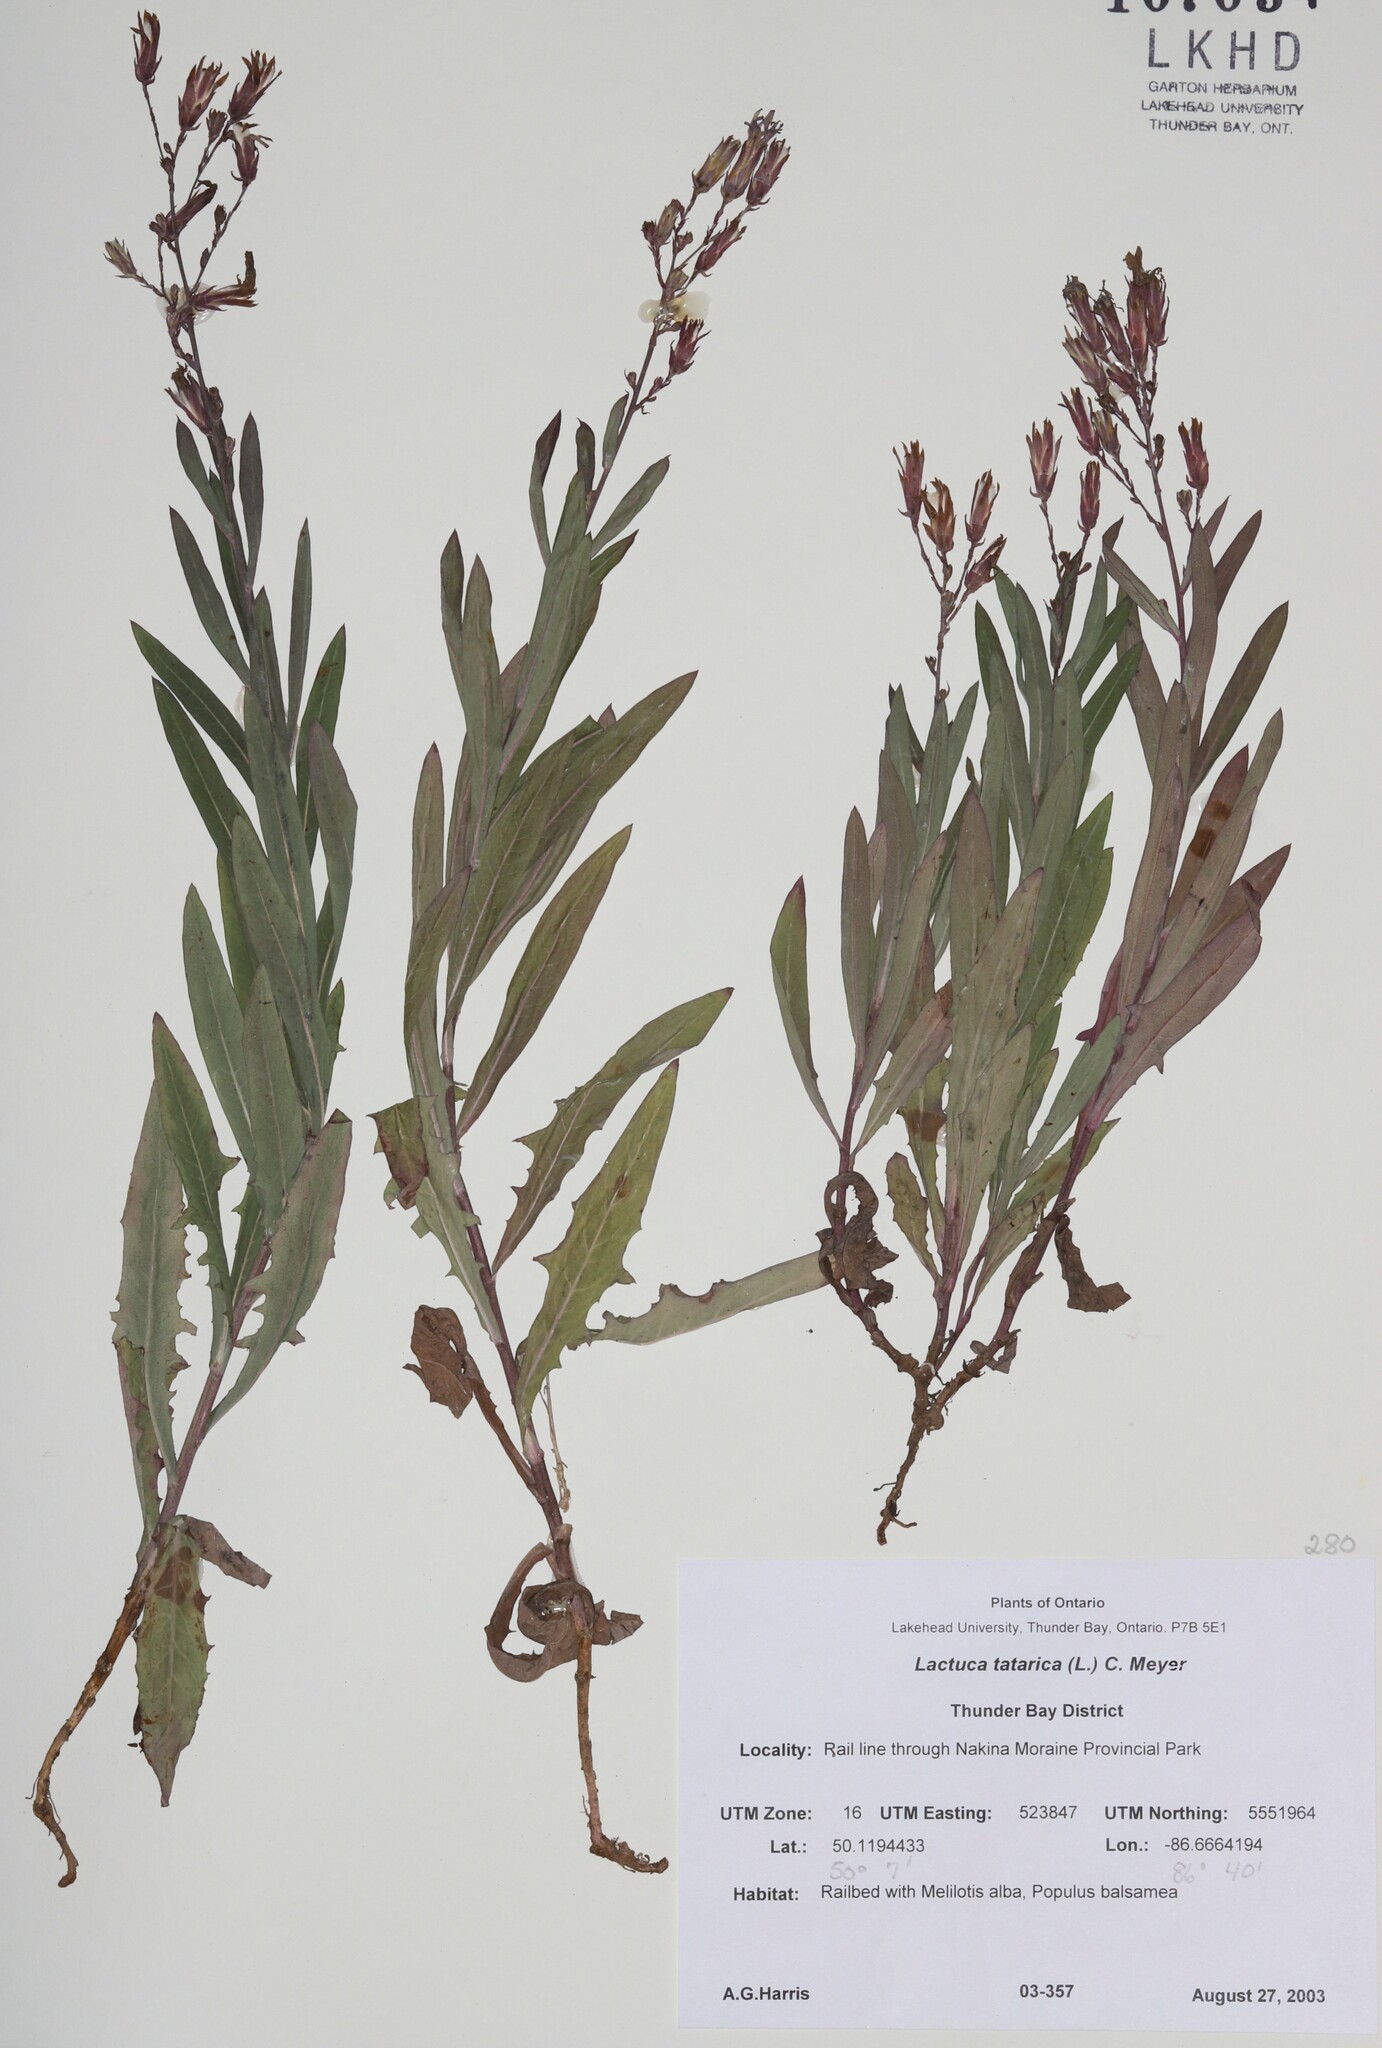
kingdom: Plantae
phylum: Tracheophyta
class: Magnoliopsida
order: Asterales
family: Asteraceae
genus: Lactuca
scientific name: Lactuca pulchella
